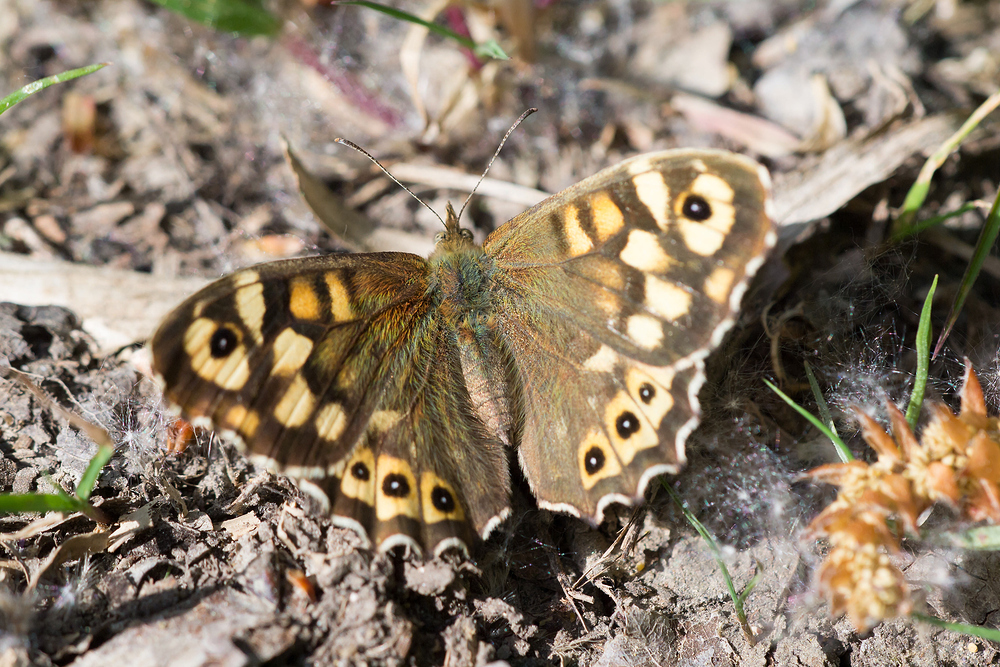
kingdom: Animalia
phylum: Arthropoda
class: Insecta
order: Lepidoptera
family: Nymphalidae
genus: Pararge
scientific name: Pararge aegeria
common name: Speckled wood
